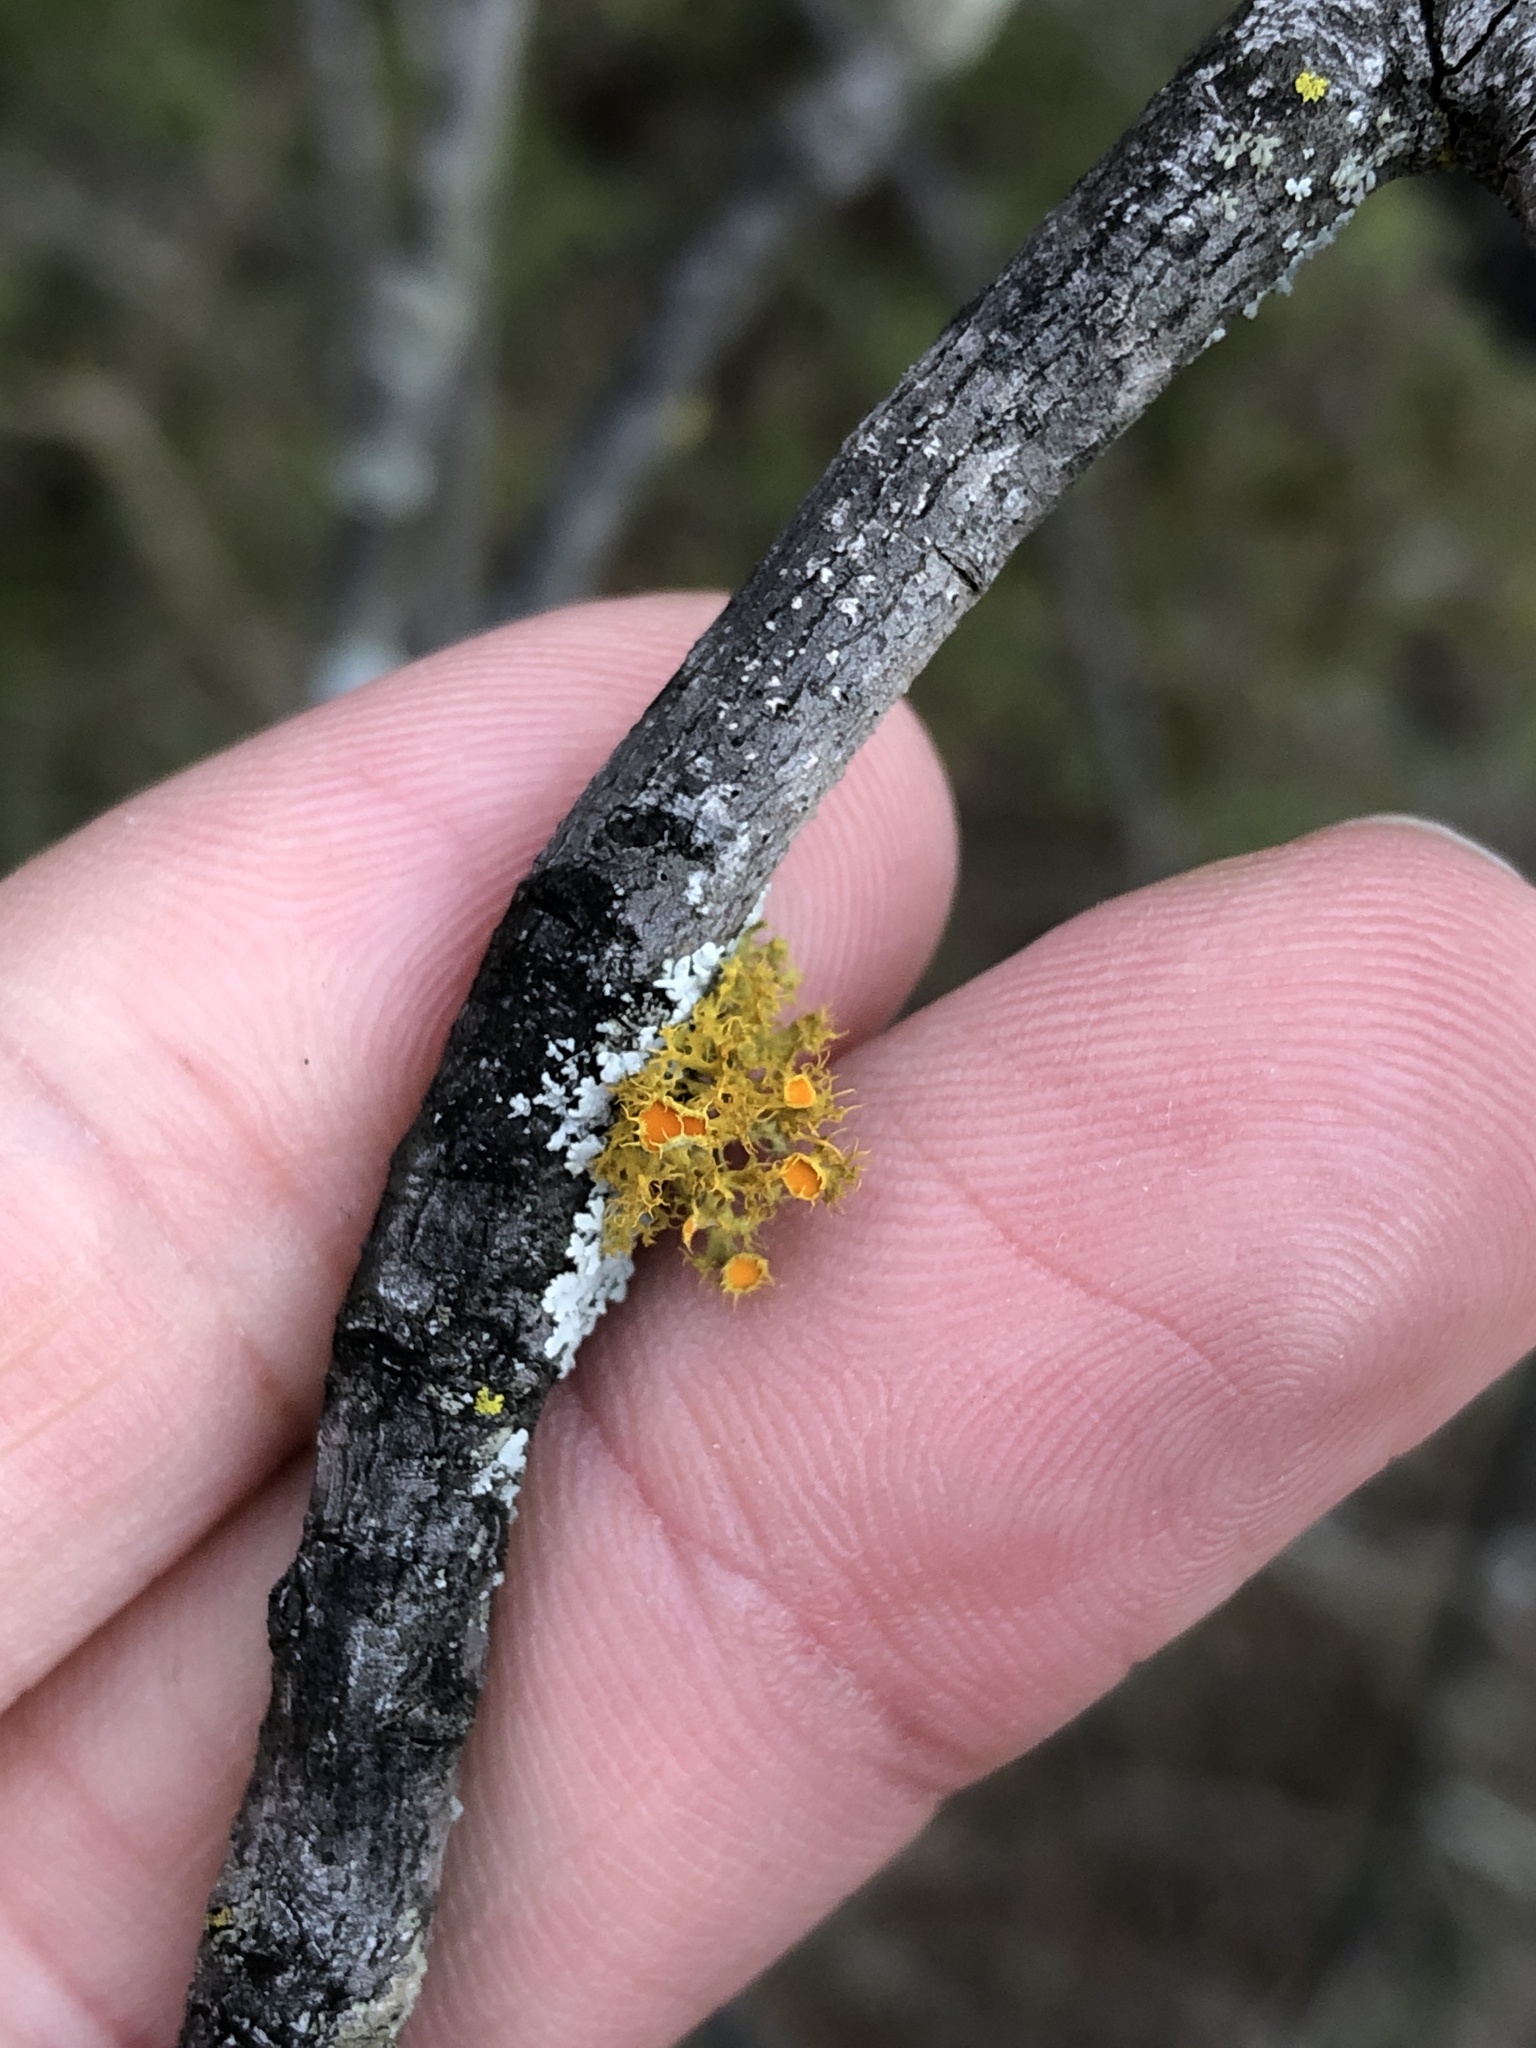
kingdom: Fungi
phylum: Ascomycota
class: Lecanoromycetes
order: Teloschistales
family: Teloschistaceae
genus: Niorma
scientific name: Niorma chrysophthalma
